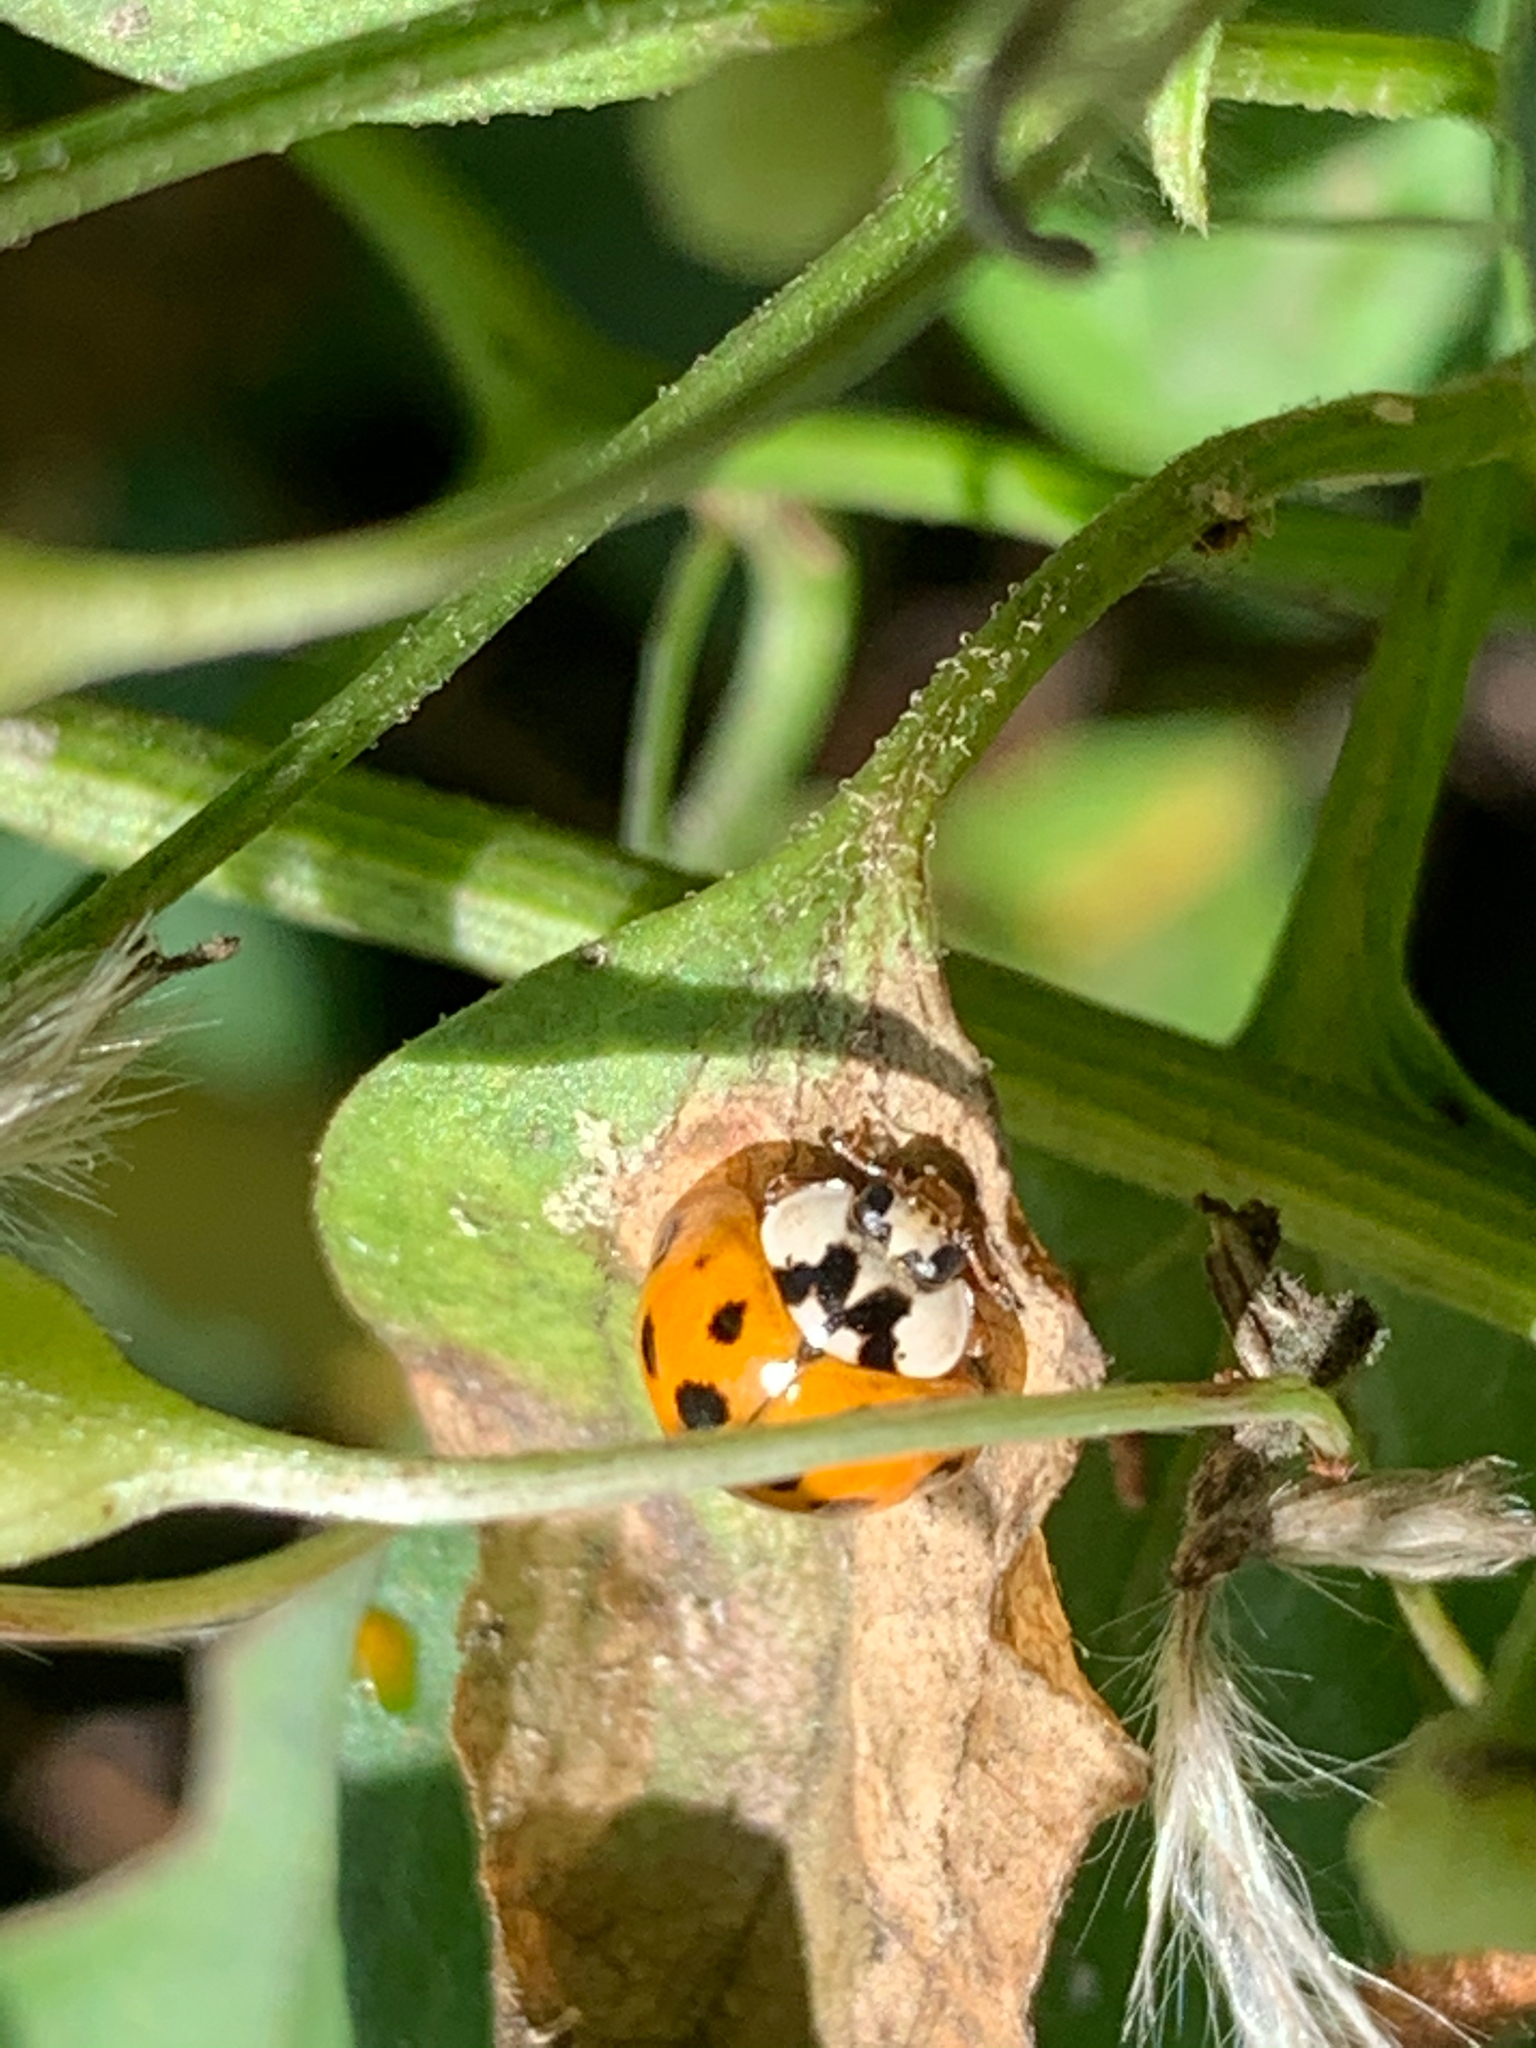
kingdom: Animalia
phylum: Arthropoda
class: Insecta
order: Coleoptera
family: Coccinellidae
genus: Harmonia
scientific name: Harmonia axyridis
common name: Harlequin ladybird
